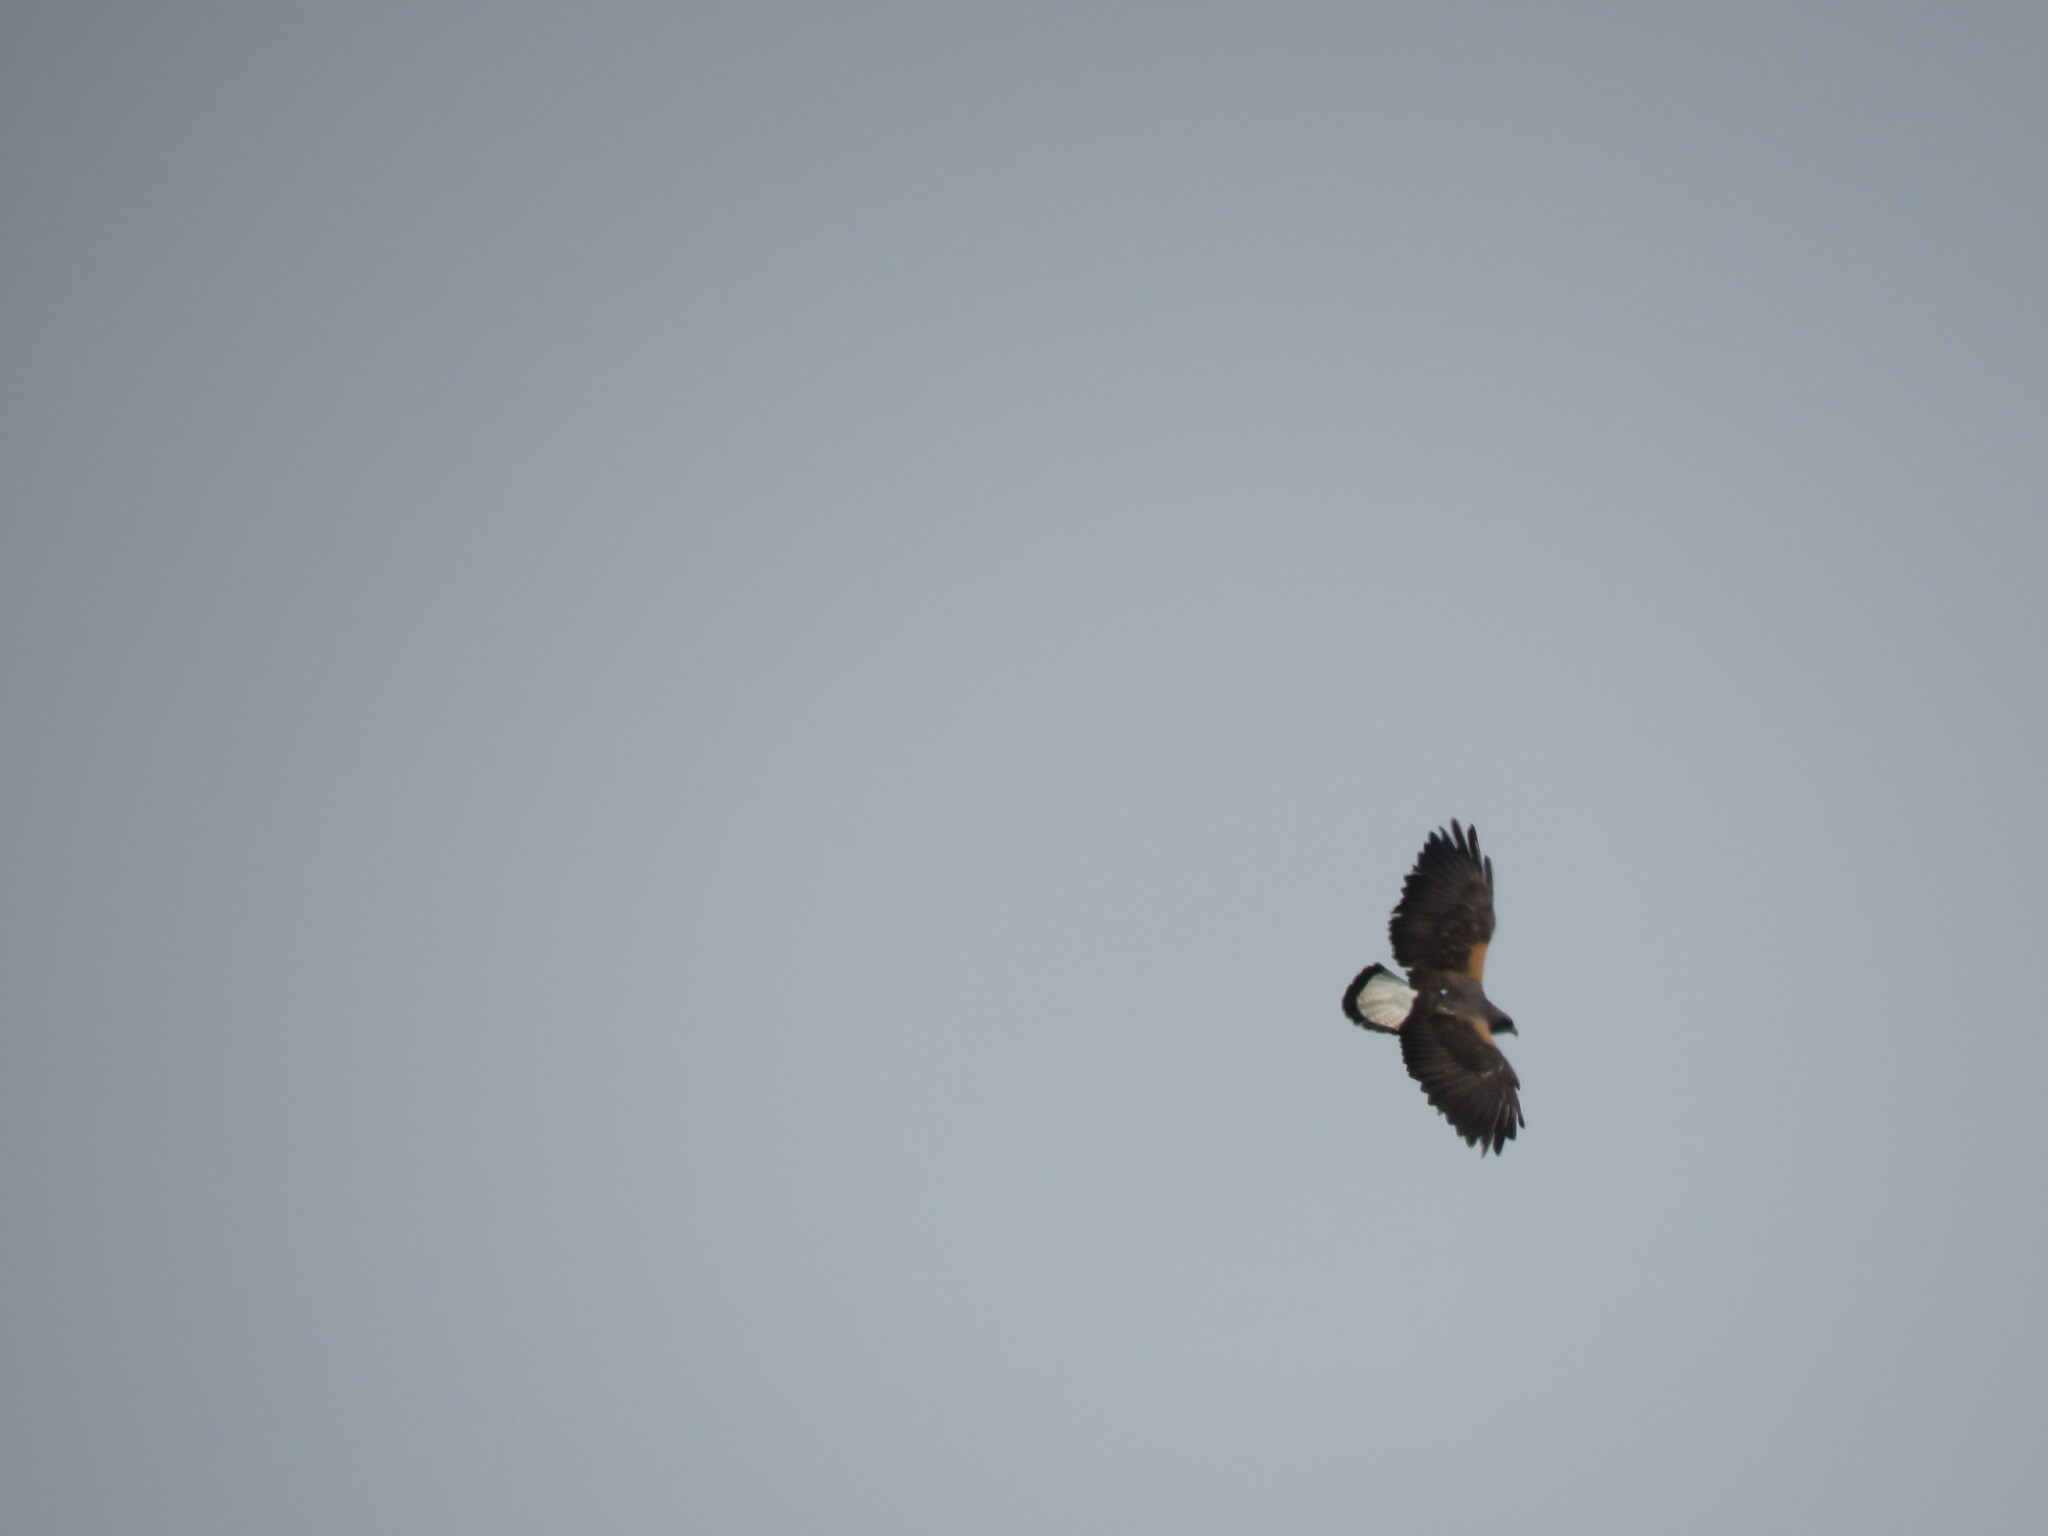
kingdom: Animalia
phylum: Chordata
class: Aves
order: Accipitriformes
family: Accipitridae
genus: Buteo
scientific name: Buteo albicaudatus
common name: White-tailed hawk
